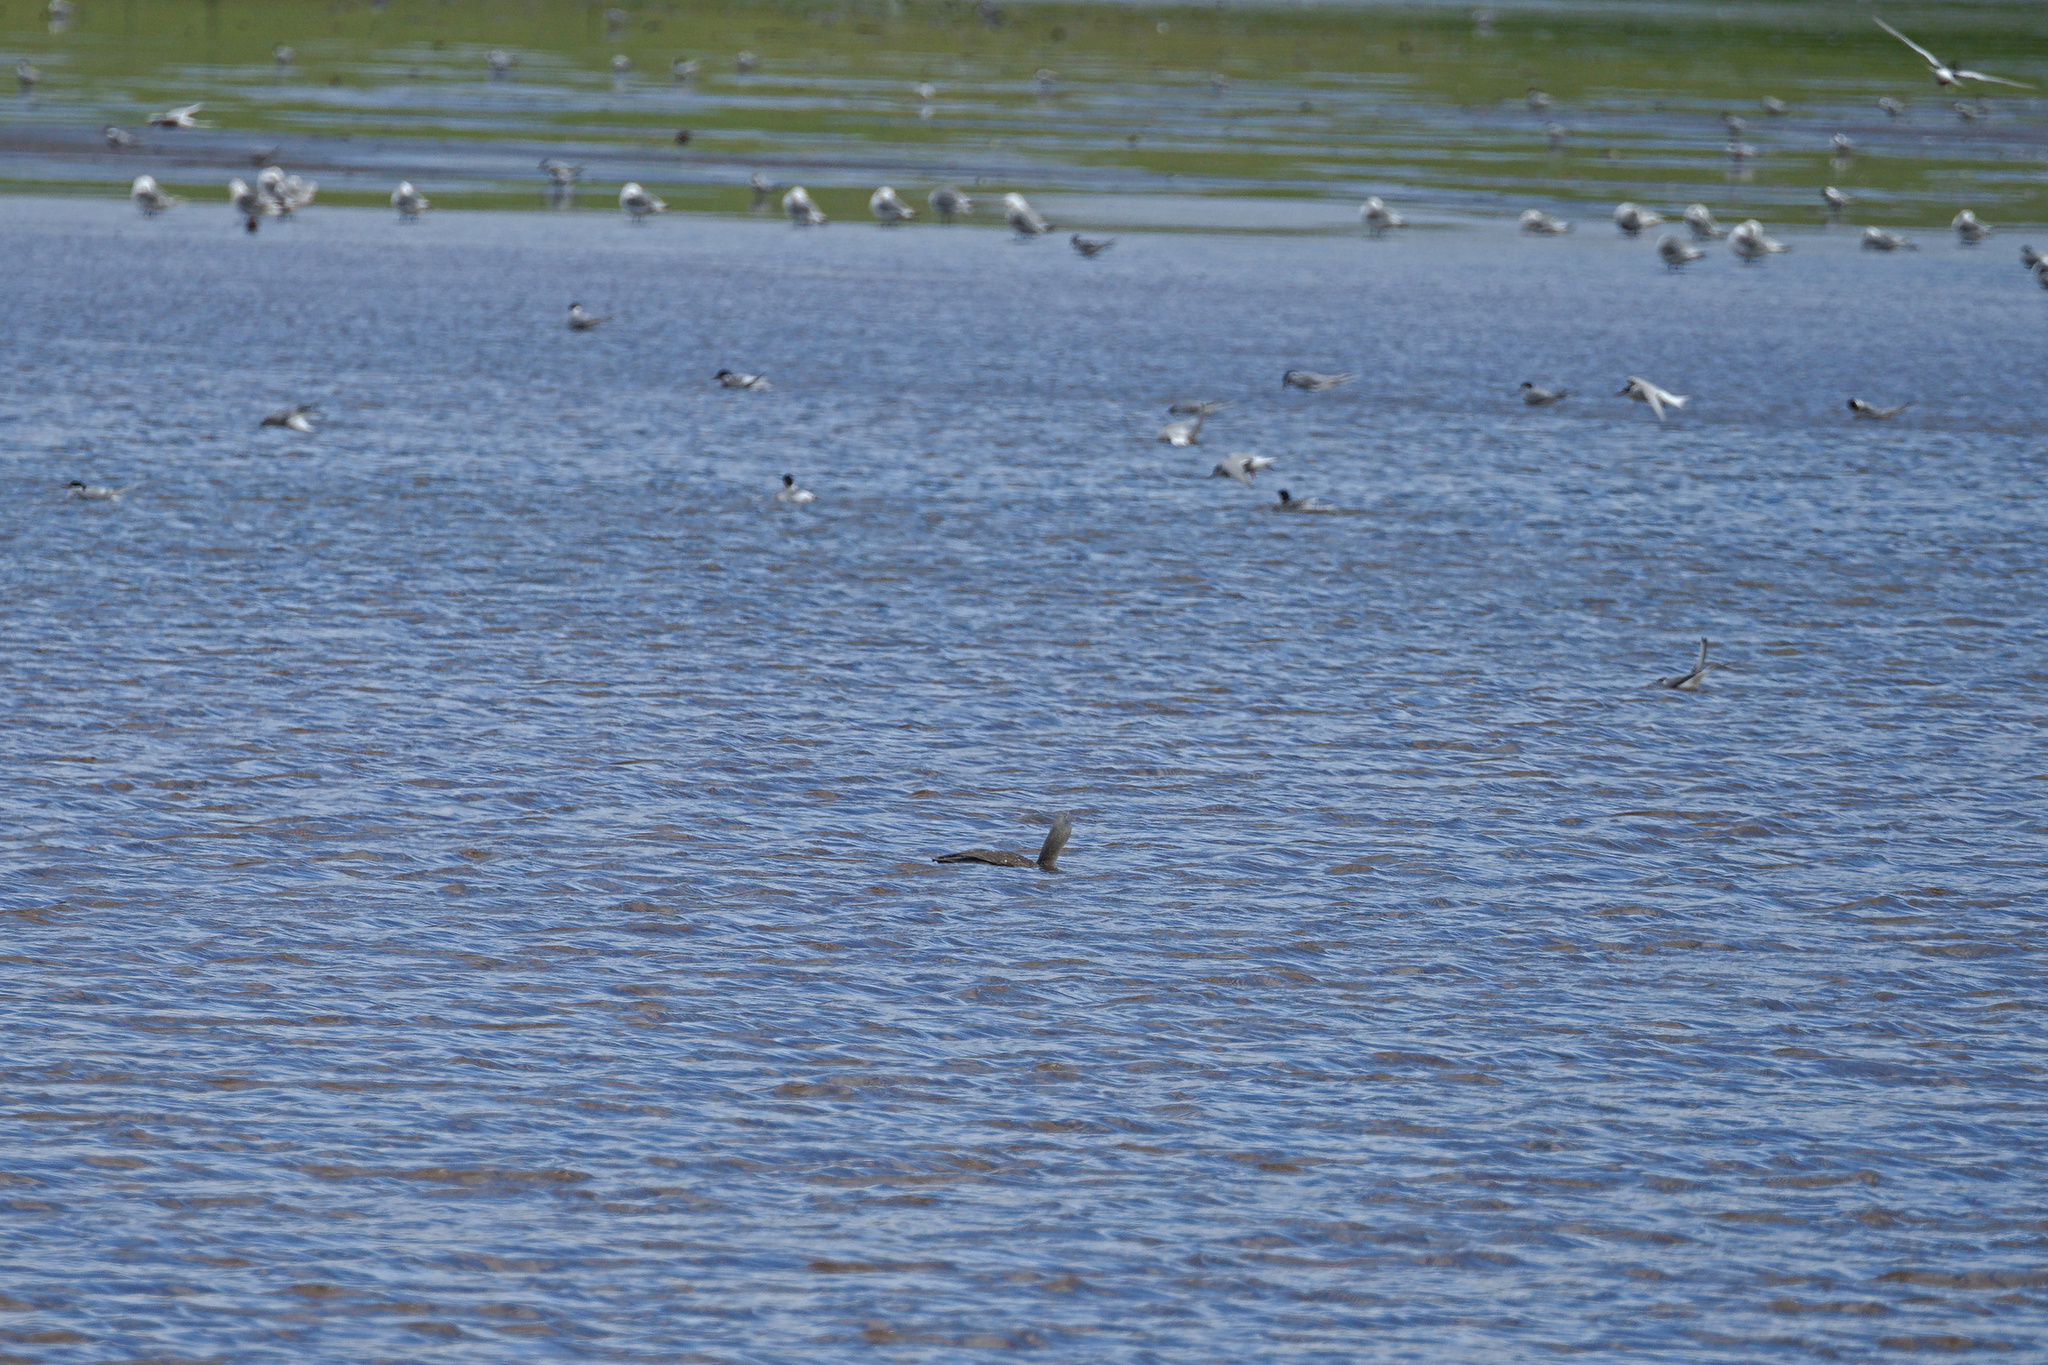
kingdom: Animalia
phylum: Chordata
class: Aves
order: Gaviiformes
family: Gaviidae
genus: Gavia
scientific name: Gavia stellata
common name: Red-throated loon
